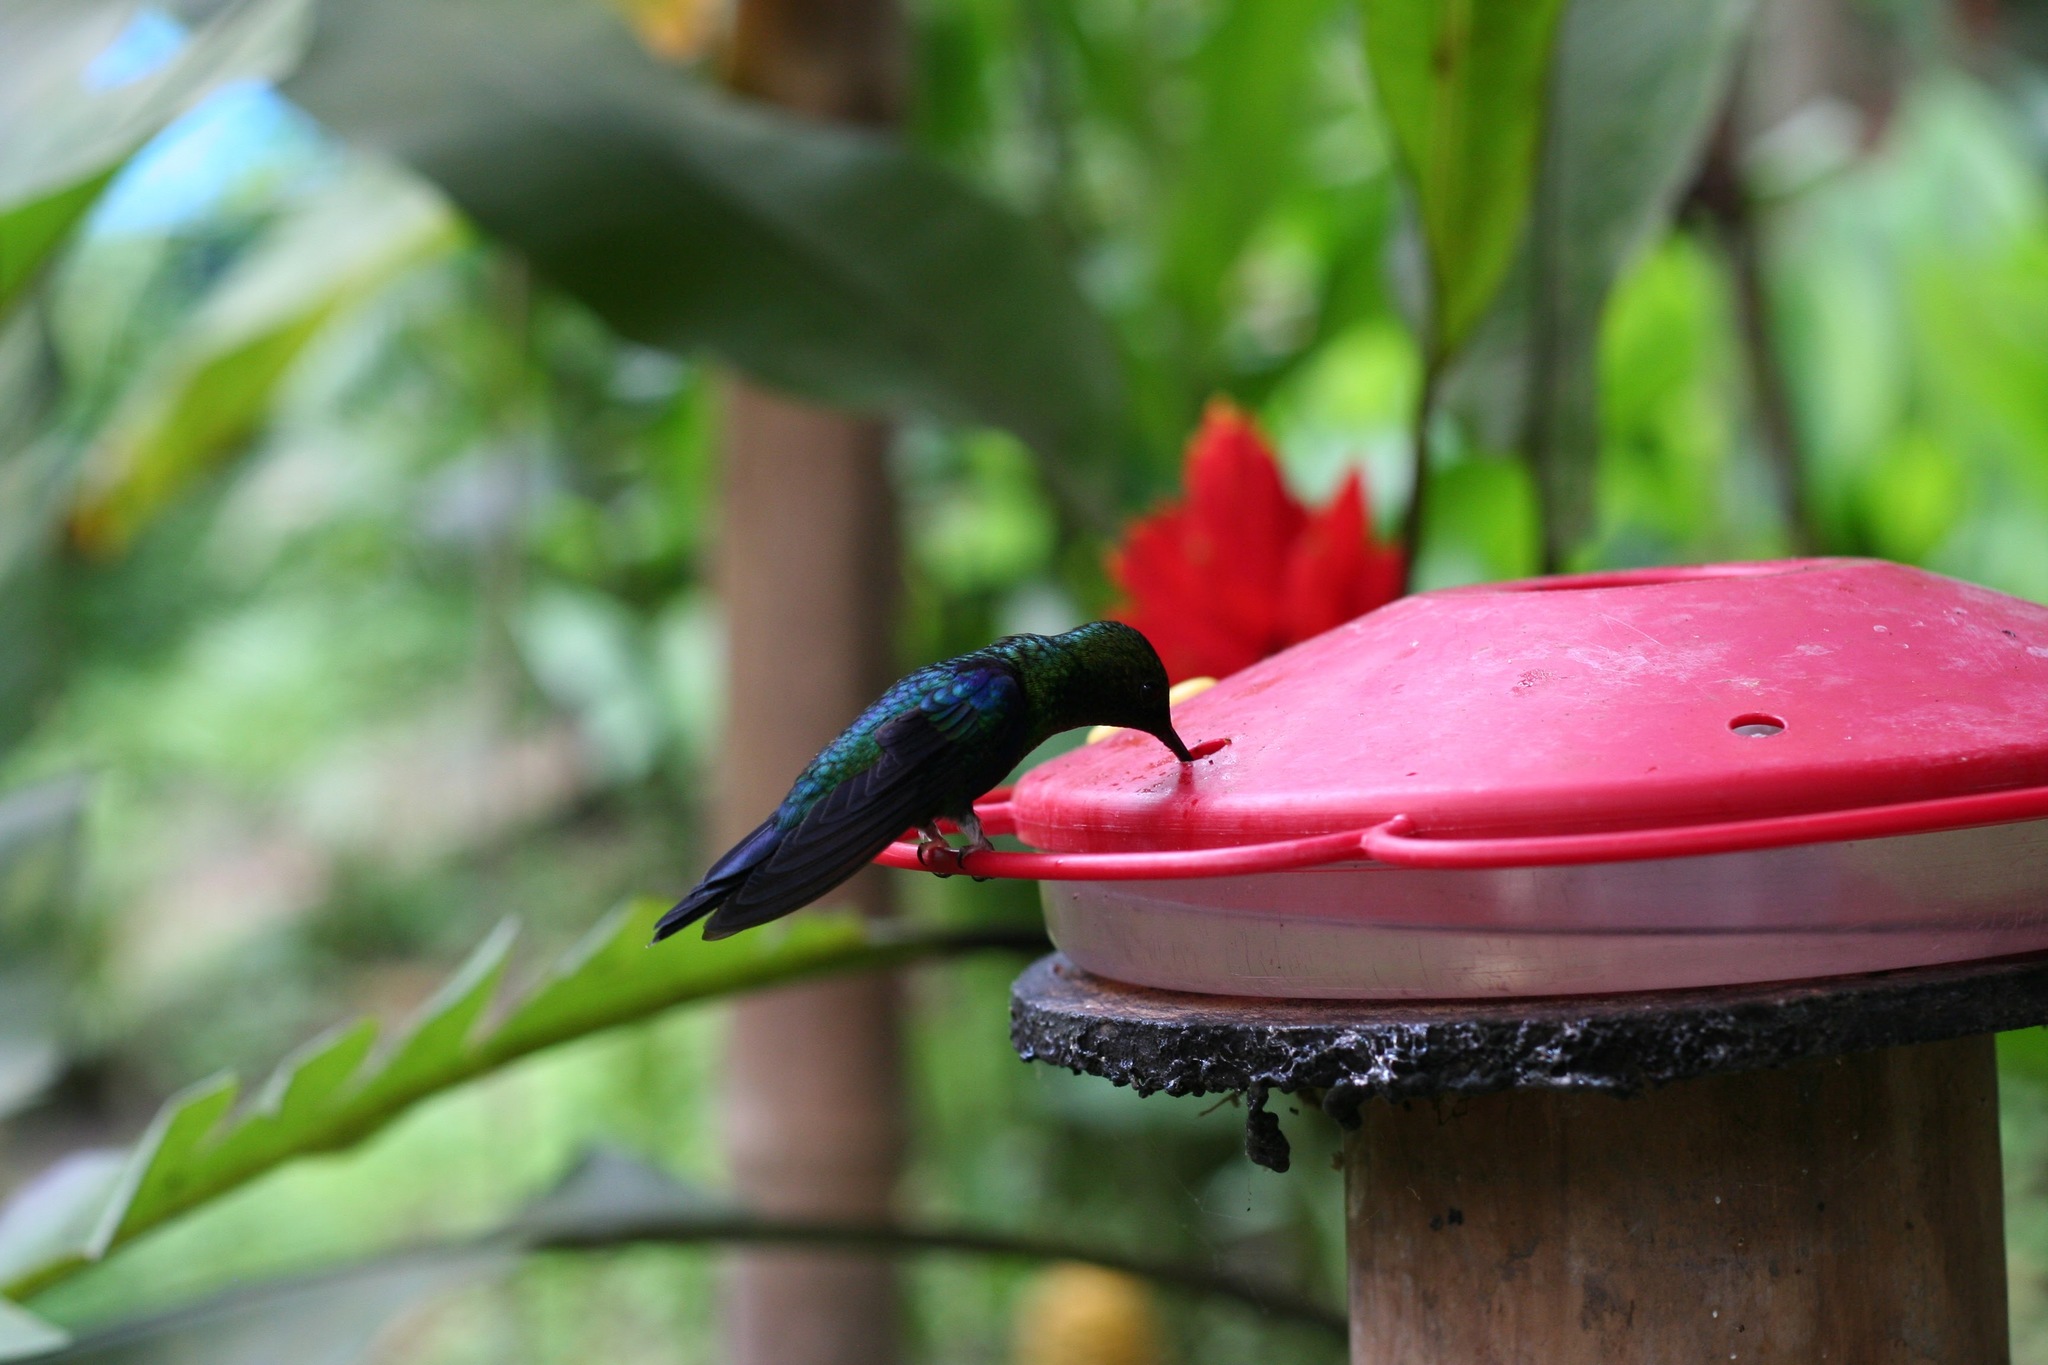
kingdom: Animalia
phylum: Chordata
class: Aves
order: Apodiformes
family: Trochilidae
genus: Thalurania
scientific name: Thalurania colombica
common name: Crowned woodnymph
